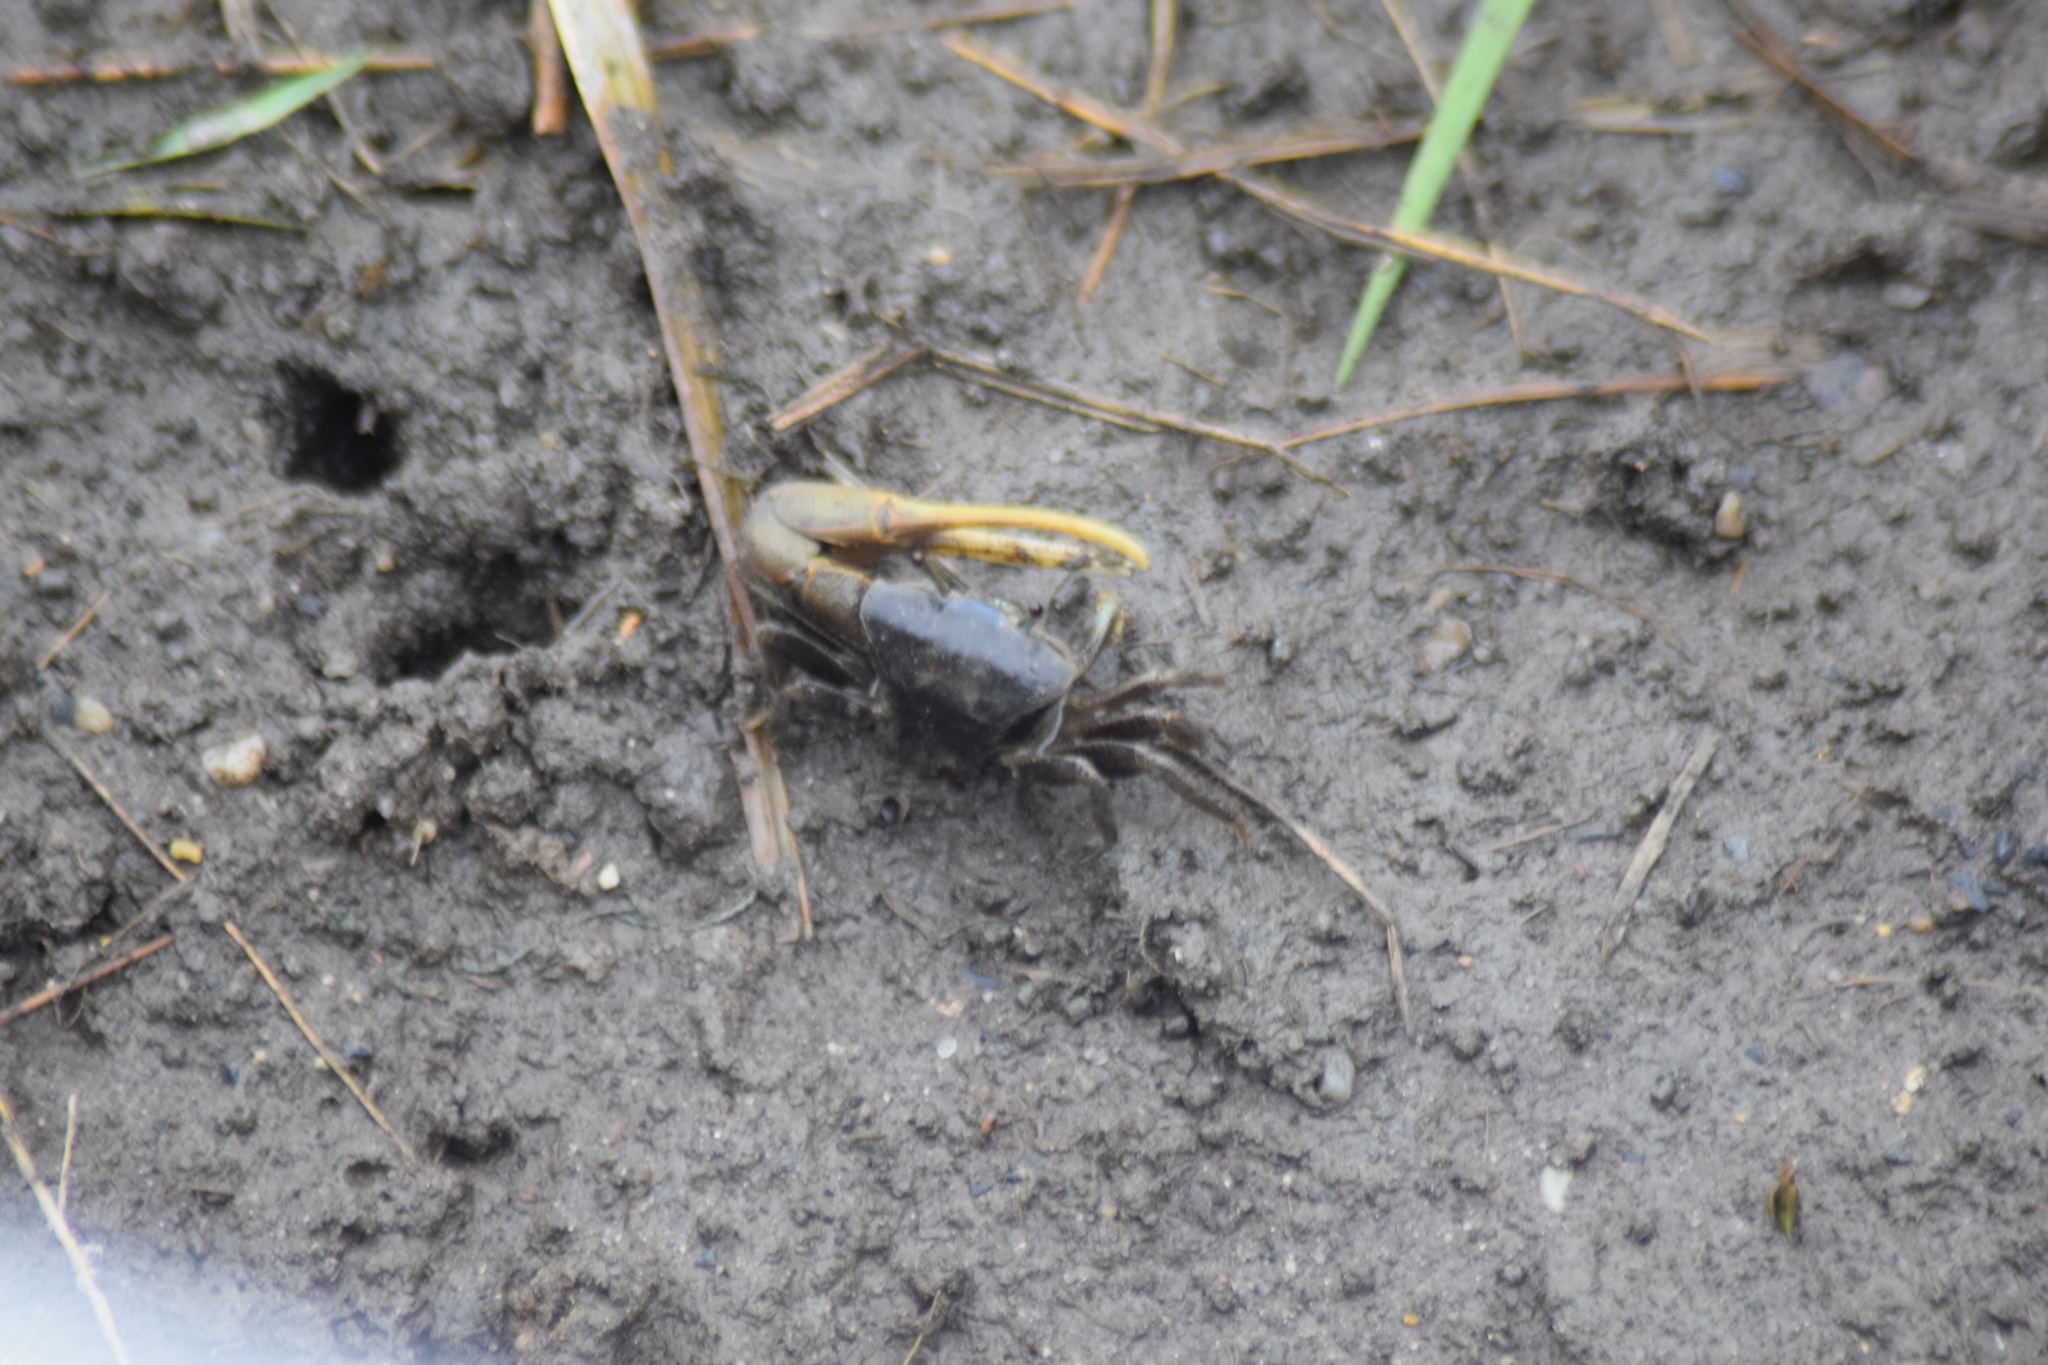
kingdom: Animalia
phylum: Arthropoda
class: Malacostraca
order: Decapoda
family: Ocypodidae
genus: Minuca
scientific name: Minuca pugnax
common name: Mud fiddler crab
